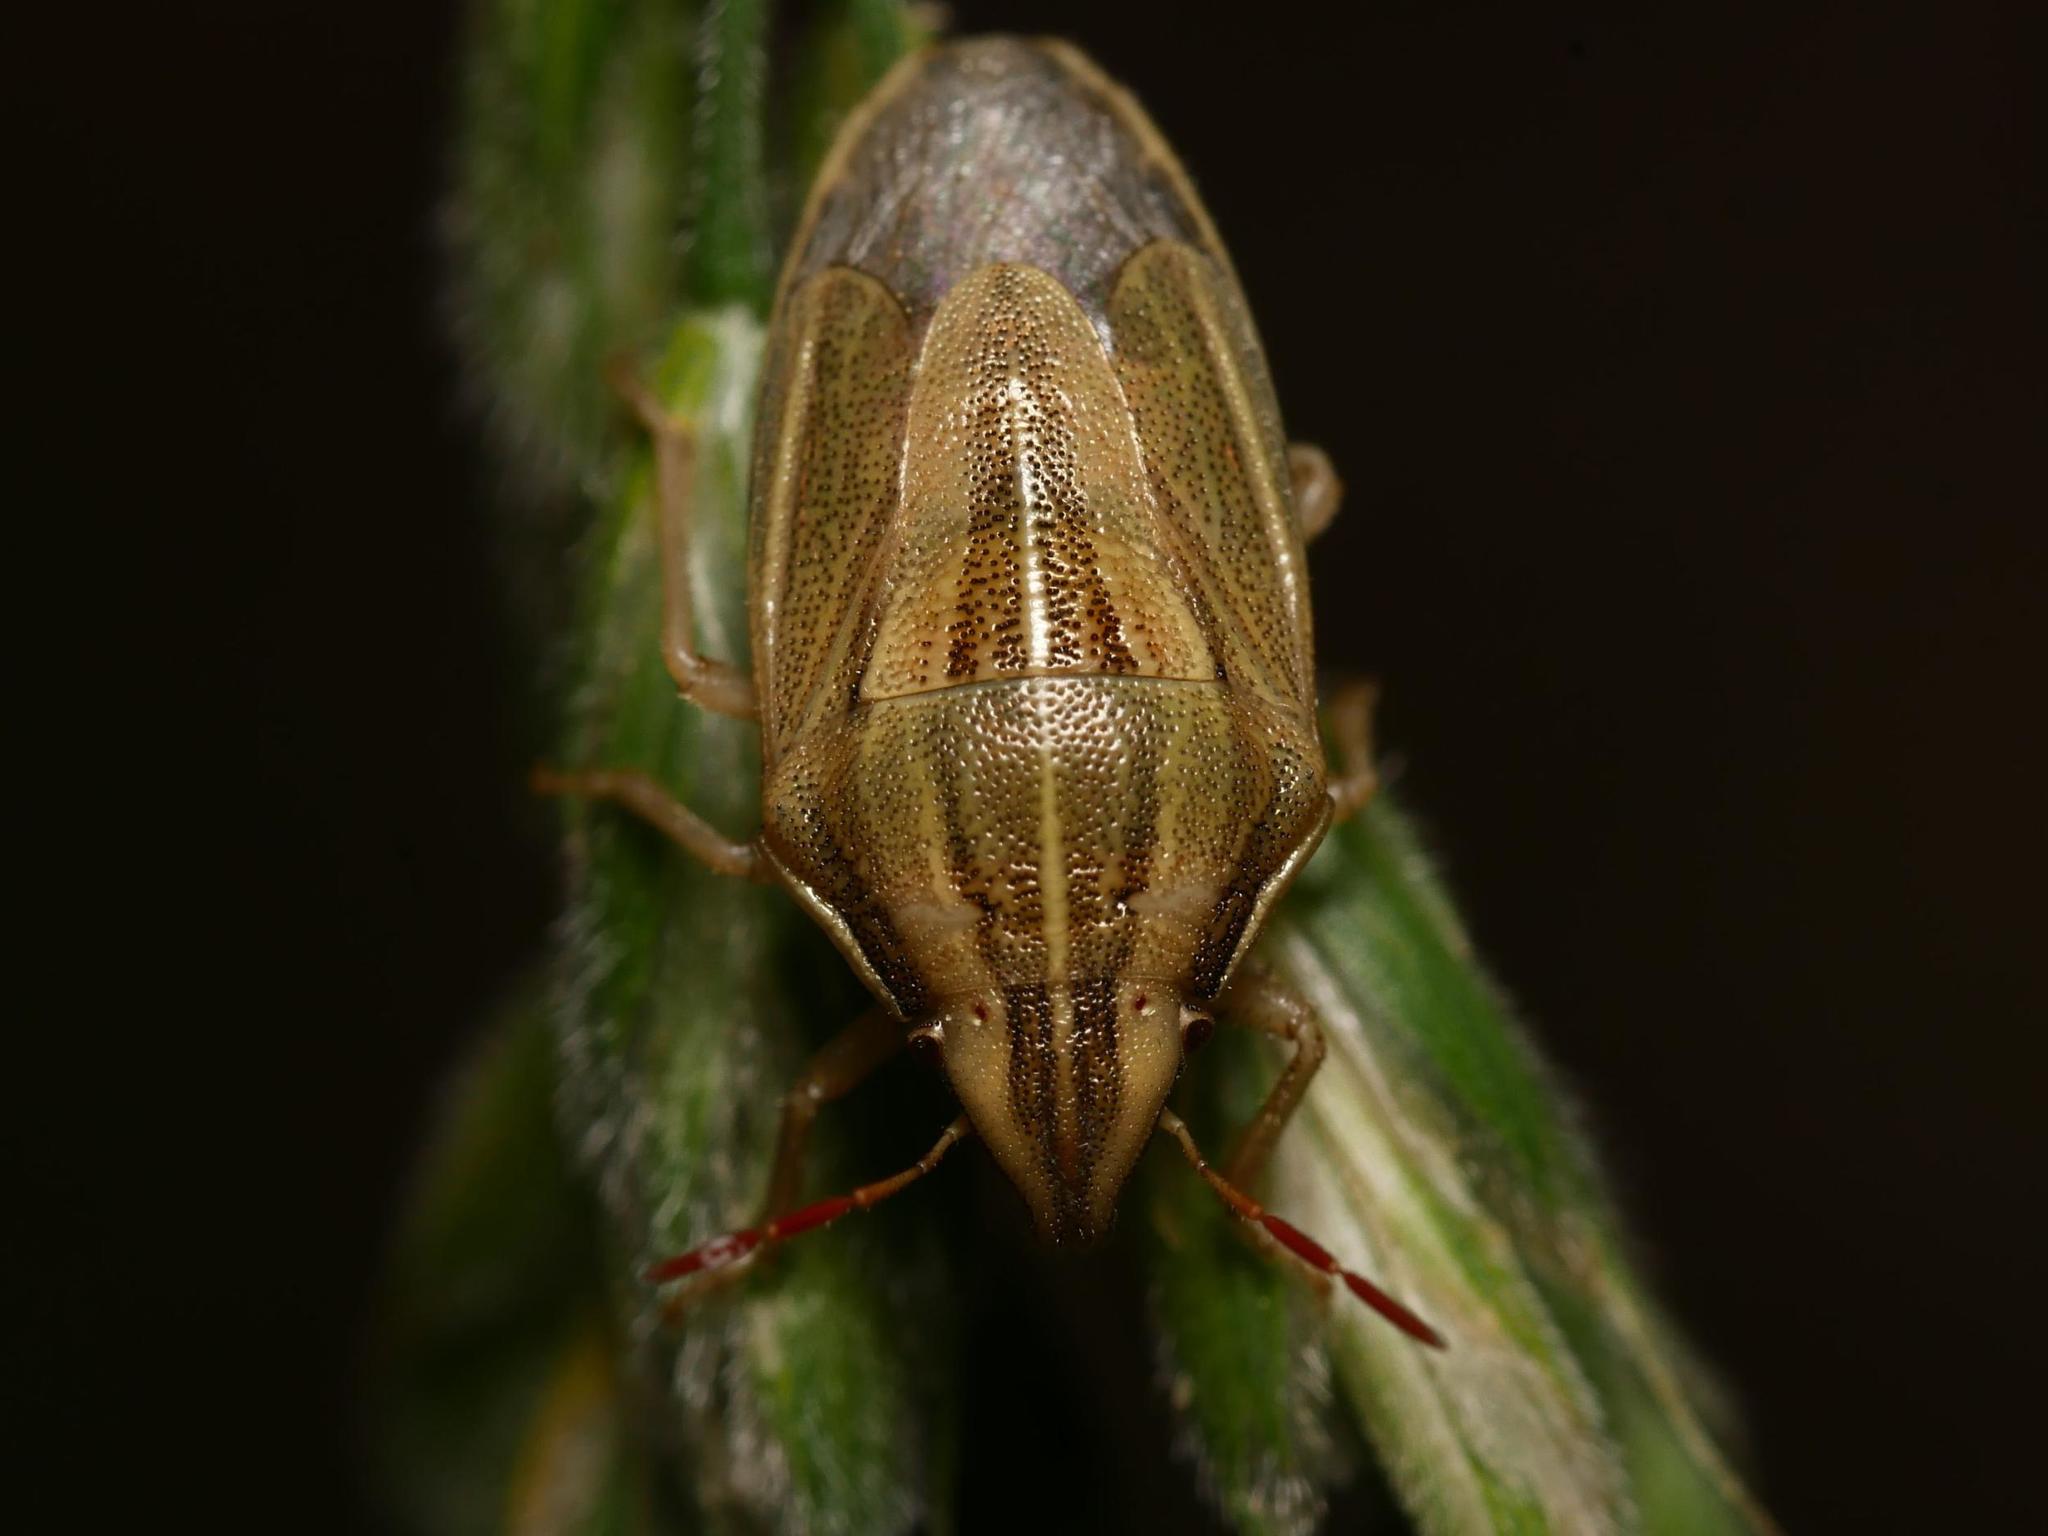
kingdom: Animalia
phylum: Arthropoda
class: Insecta
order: Hemiptera
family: Pentatomidae
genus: Aelia
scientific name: Aelia acuminata
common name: Bishop's mitre
